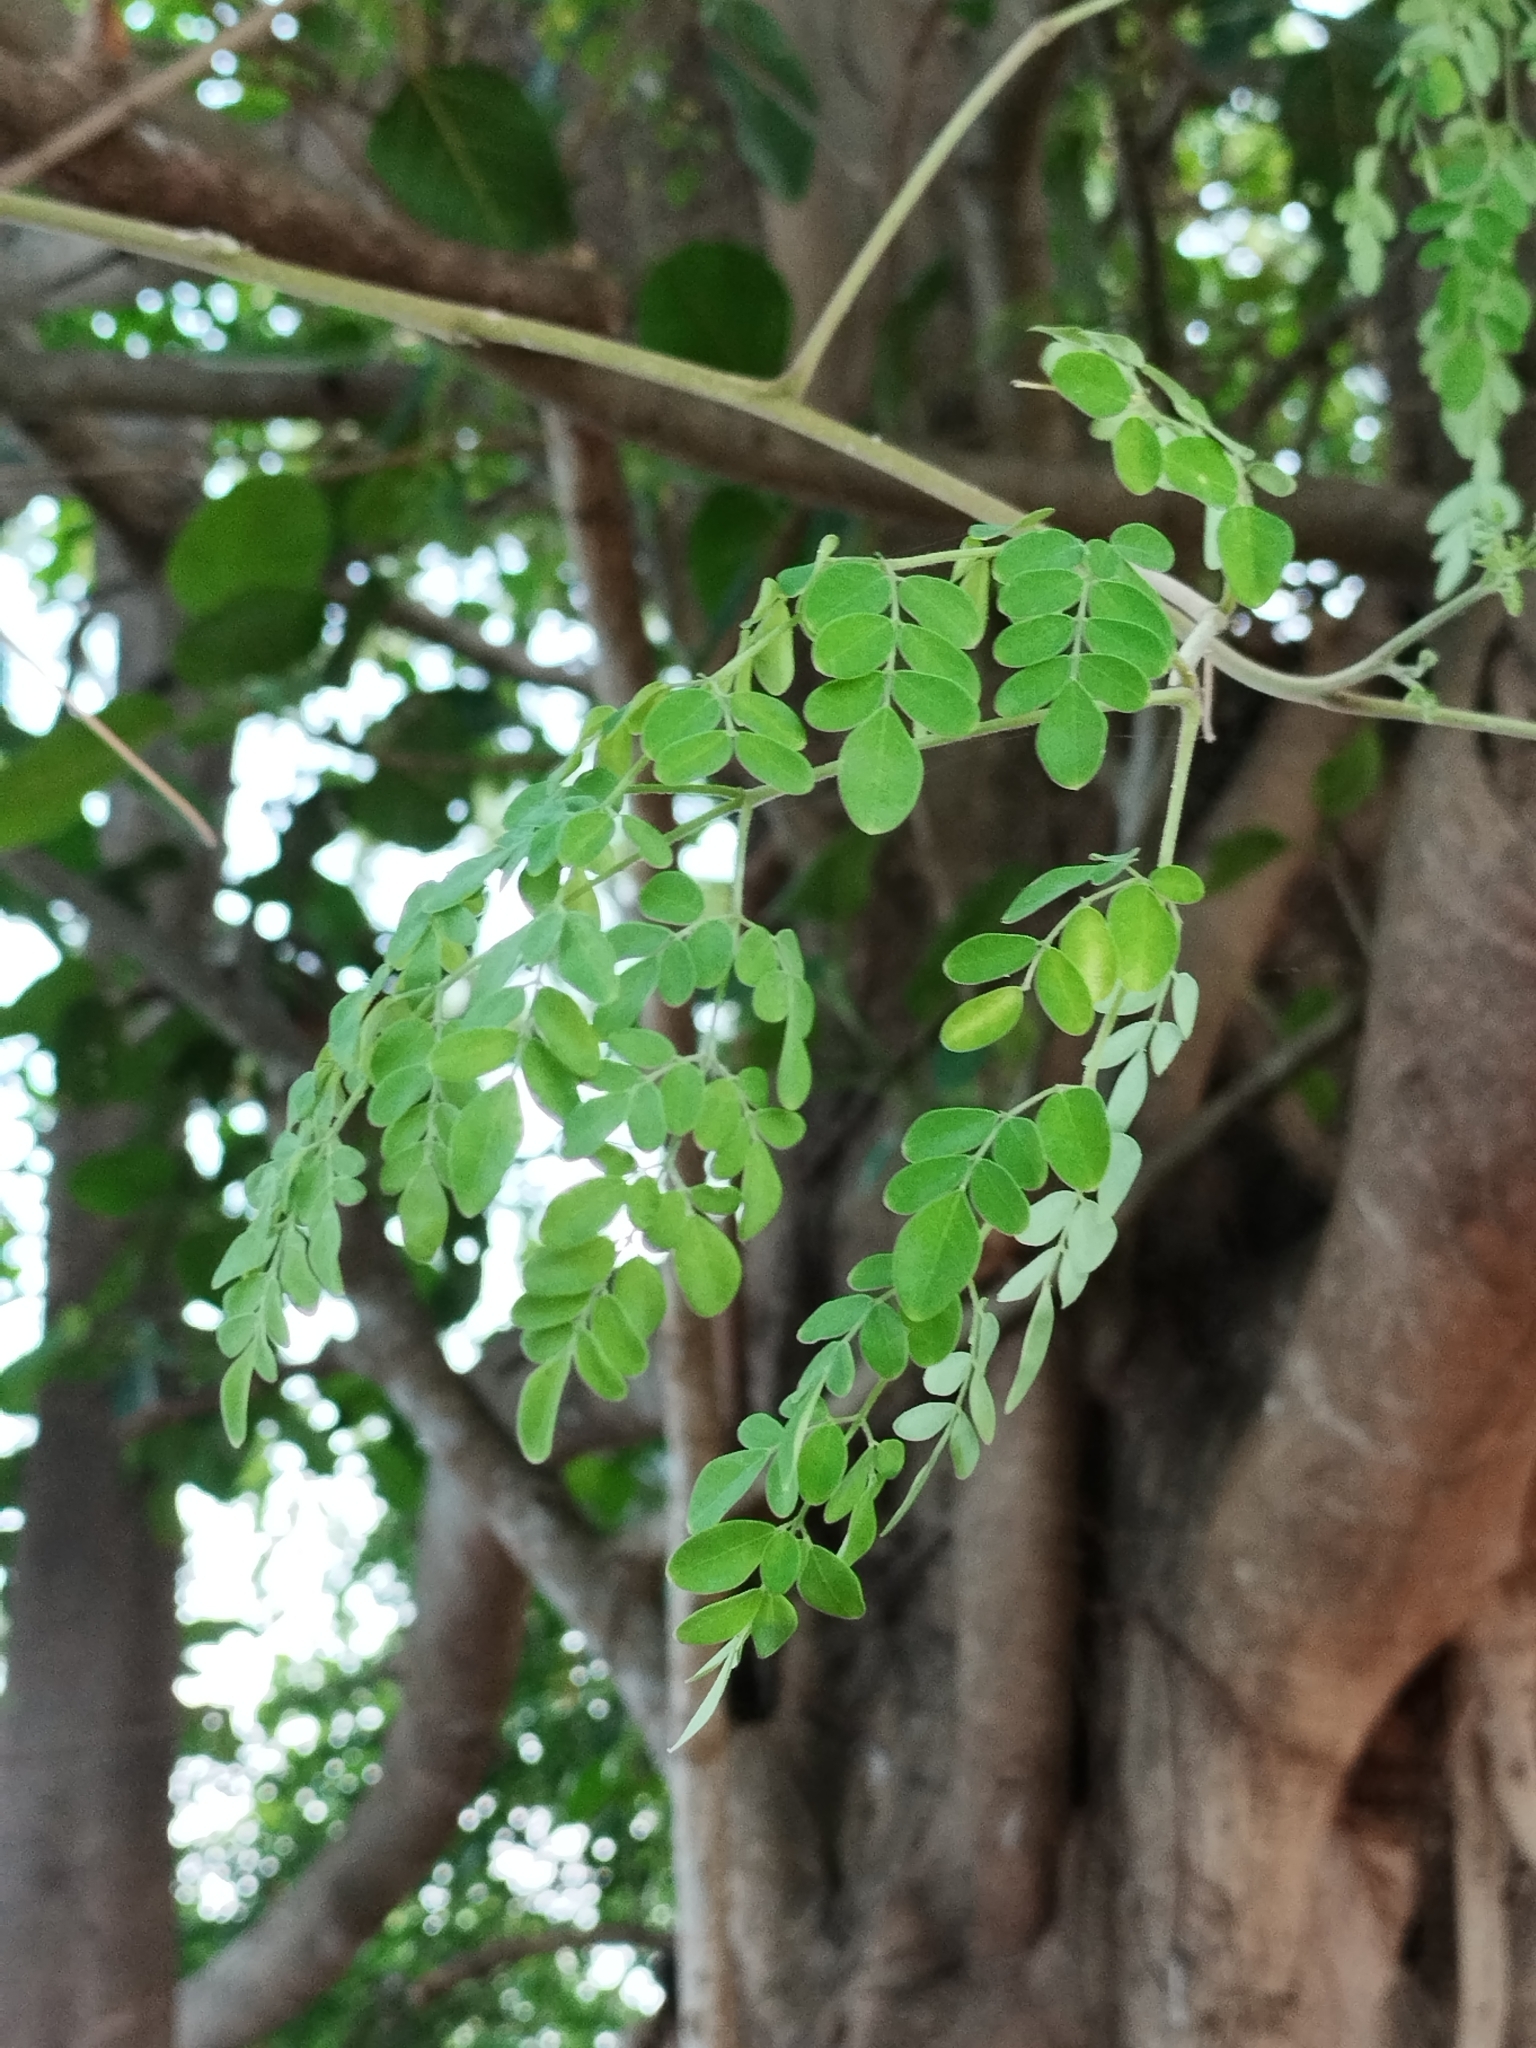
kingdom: Plantae
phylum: Tracheophyta
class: Magnoliopsida
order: Brassicales
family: Moringaceae
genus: Moringa
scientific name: Moringa oleifera
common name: Horseradish-tree
